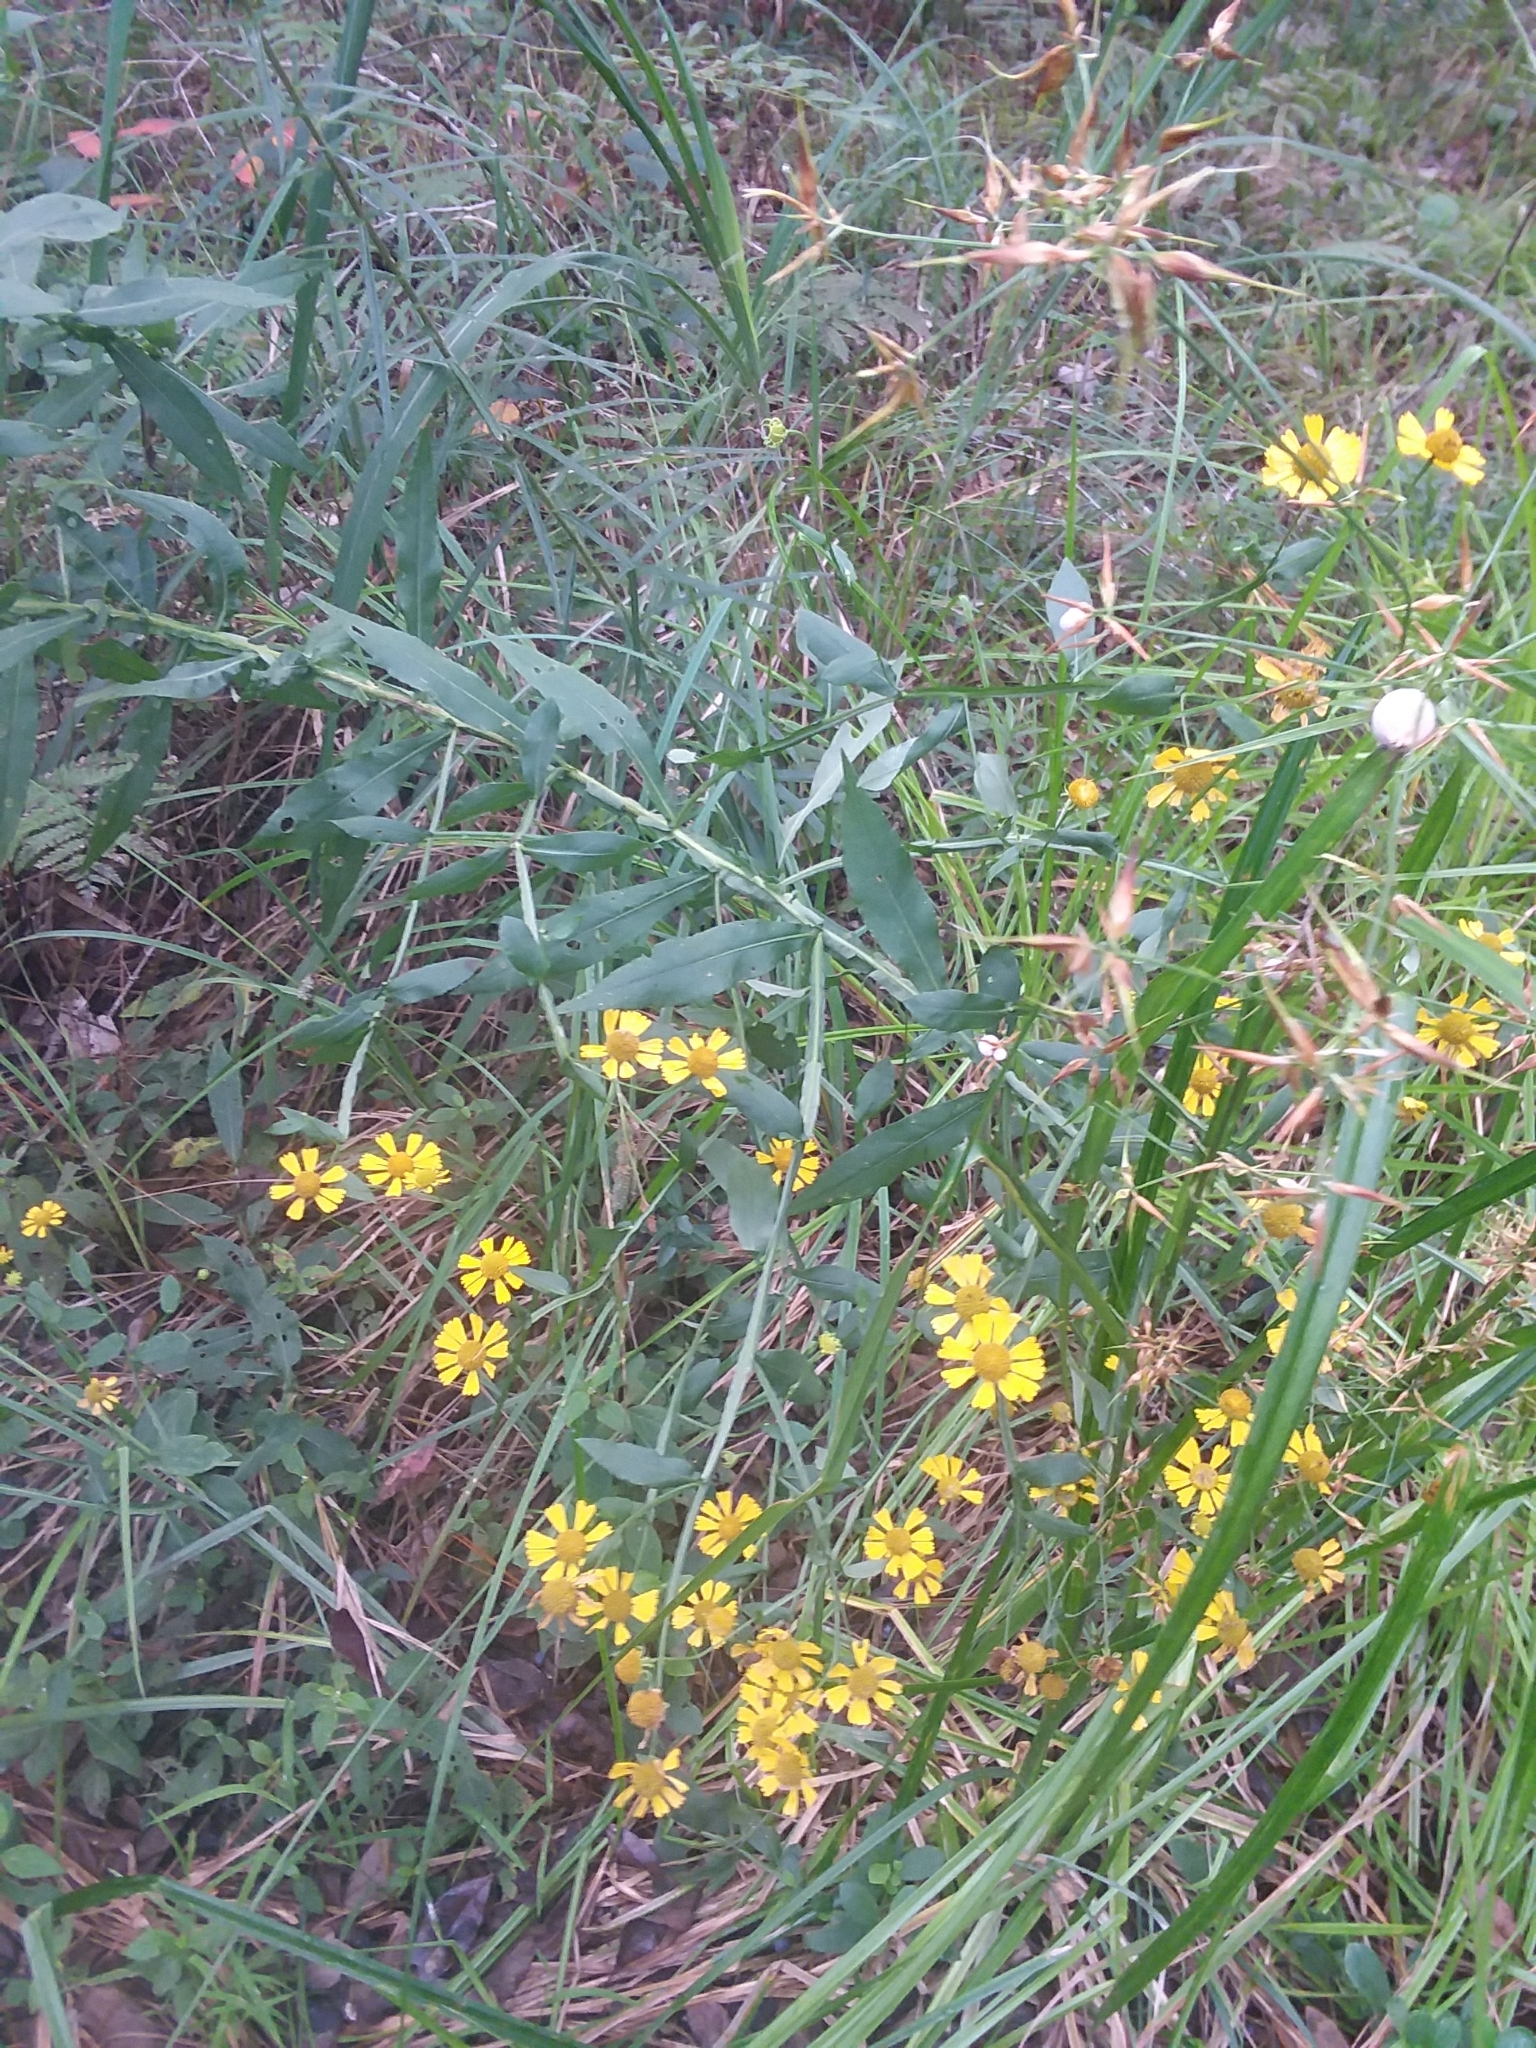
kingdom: Plantae
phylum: Tracheophyta
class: Magnoliopsida
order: Asterales
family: Asteraceae
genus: Helenium
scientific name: Helenium autumnale
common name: Sneezeweed
